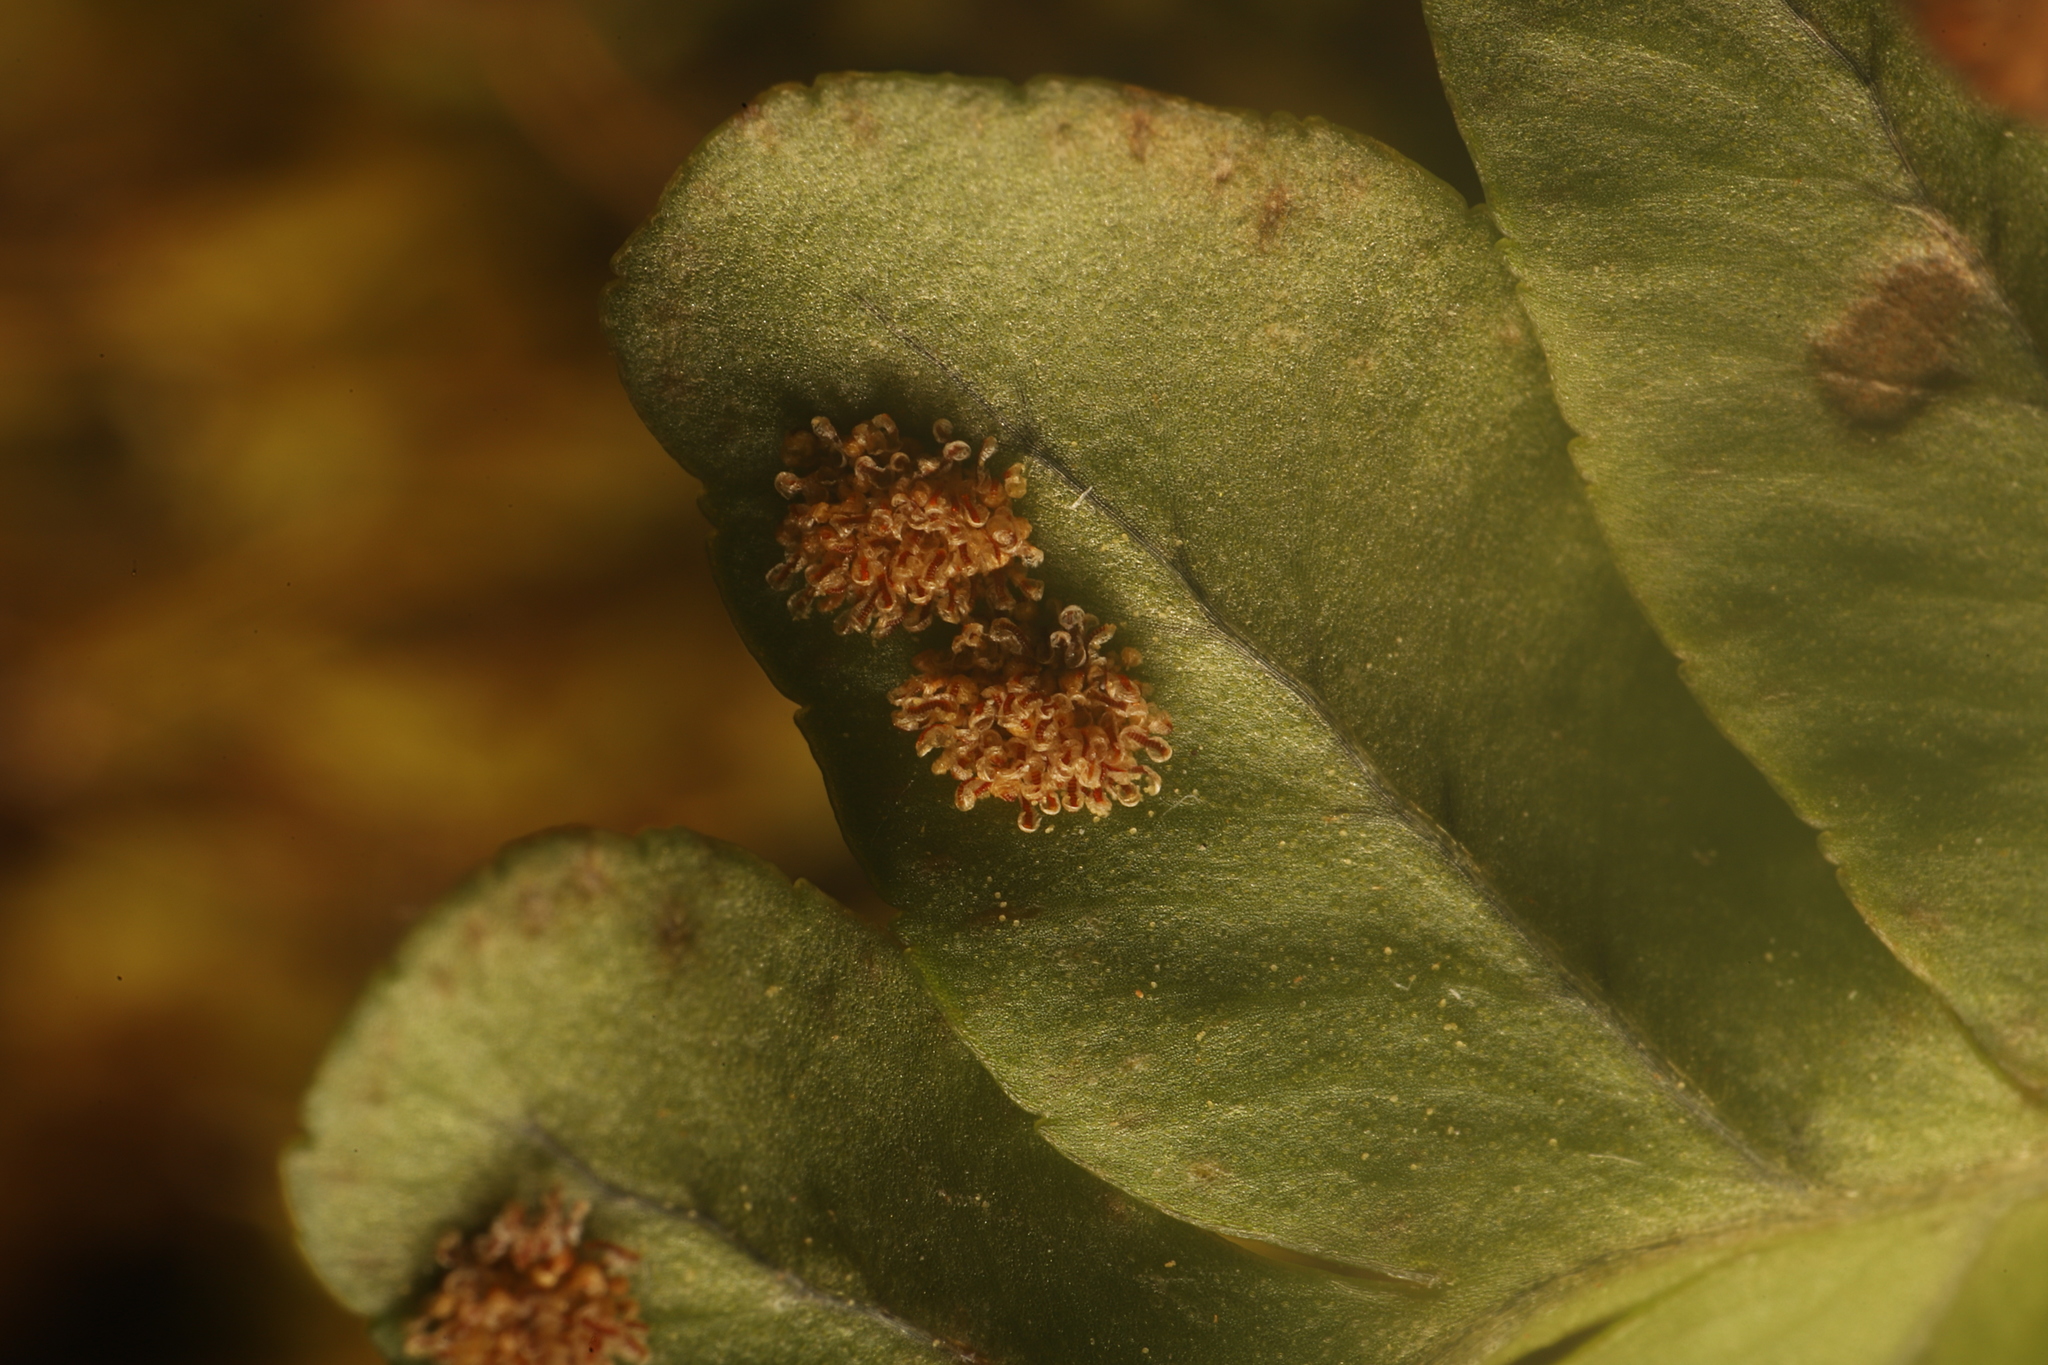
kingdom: Plantae
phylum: Tracheophyta
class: Polypodiopsida
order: Polypodiales
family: Polypodiaceae
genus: Polypodium
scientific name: Polypodium hesperium
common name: Western polypody
